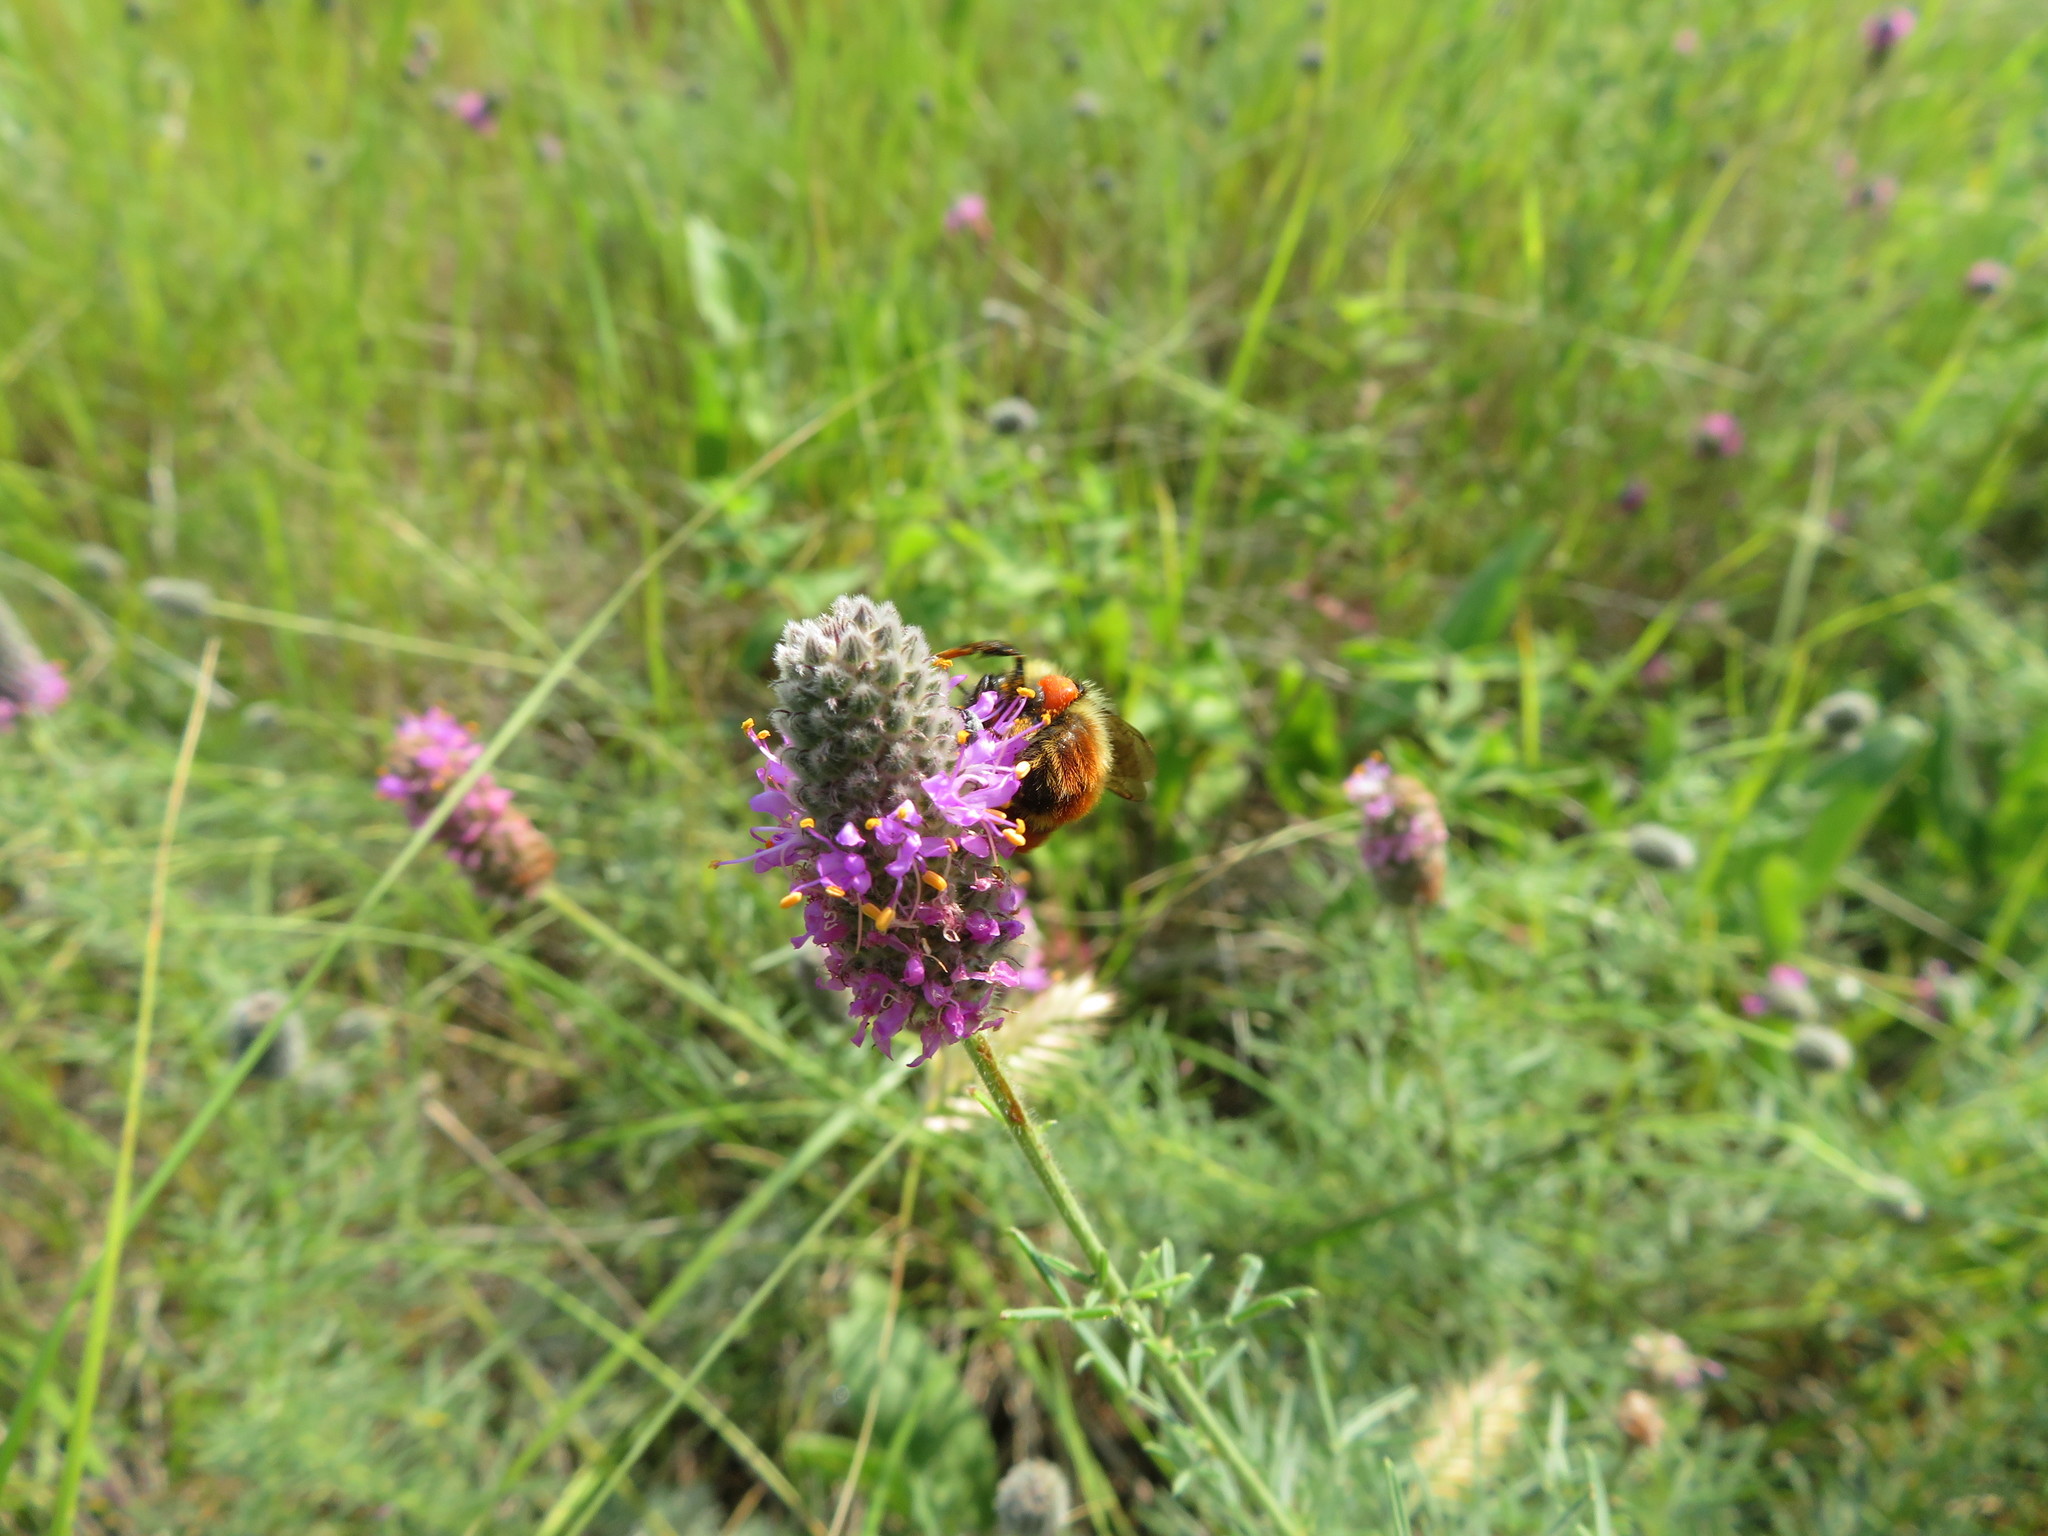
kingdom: Plantae
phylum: Tracheophyta
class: Magnoliopsida
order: Fabales
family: Fabaceae
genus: Dalea
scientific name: Dalea purpurea
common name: Purple prairie-clover
